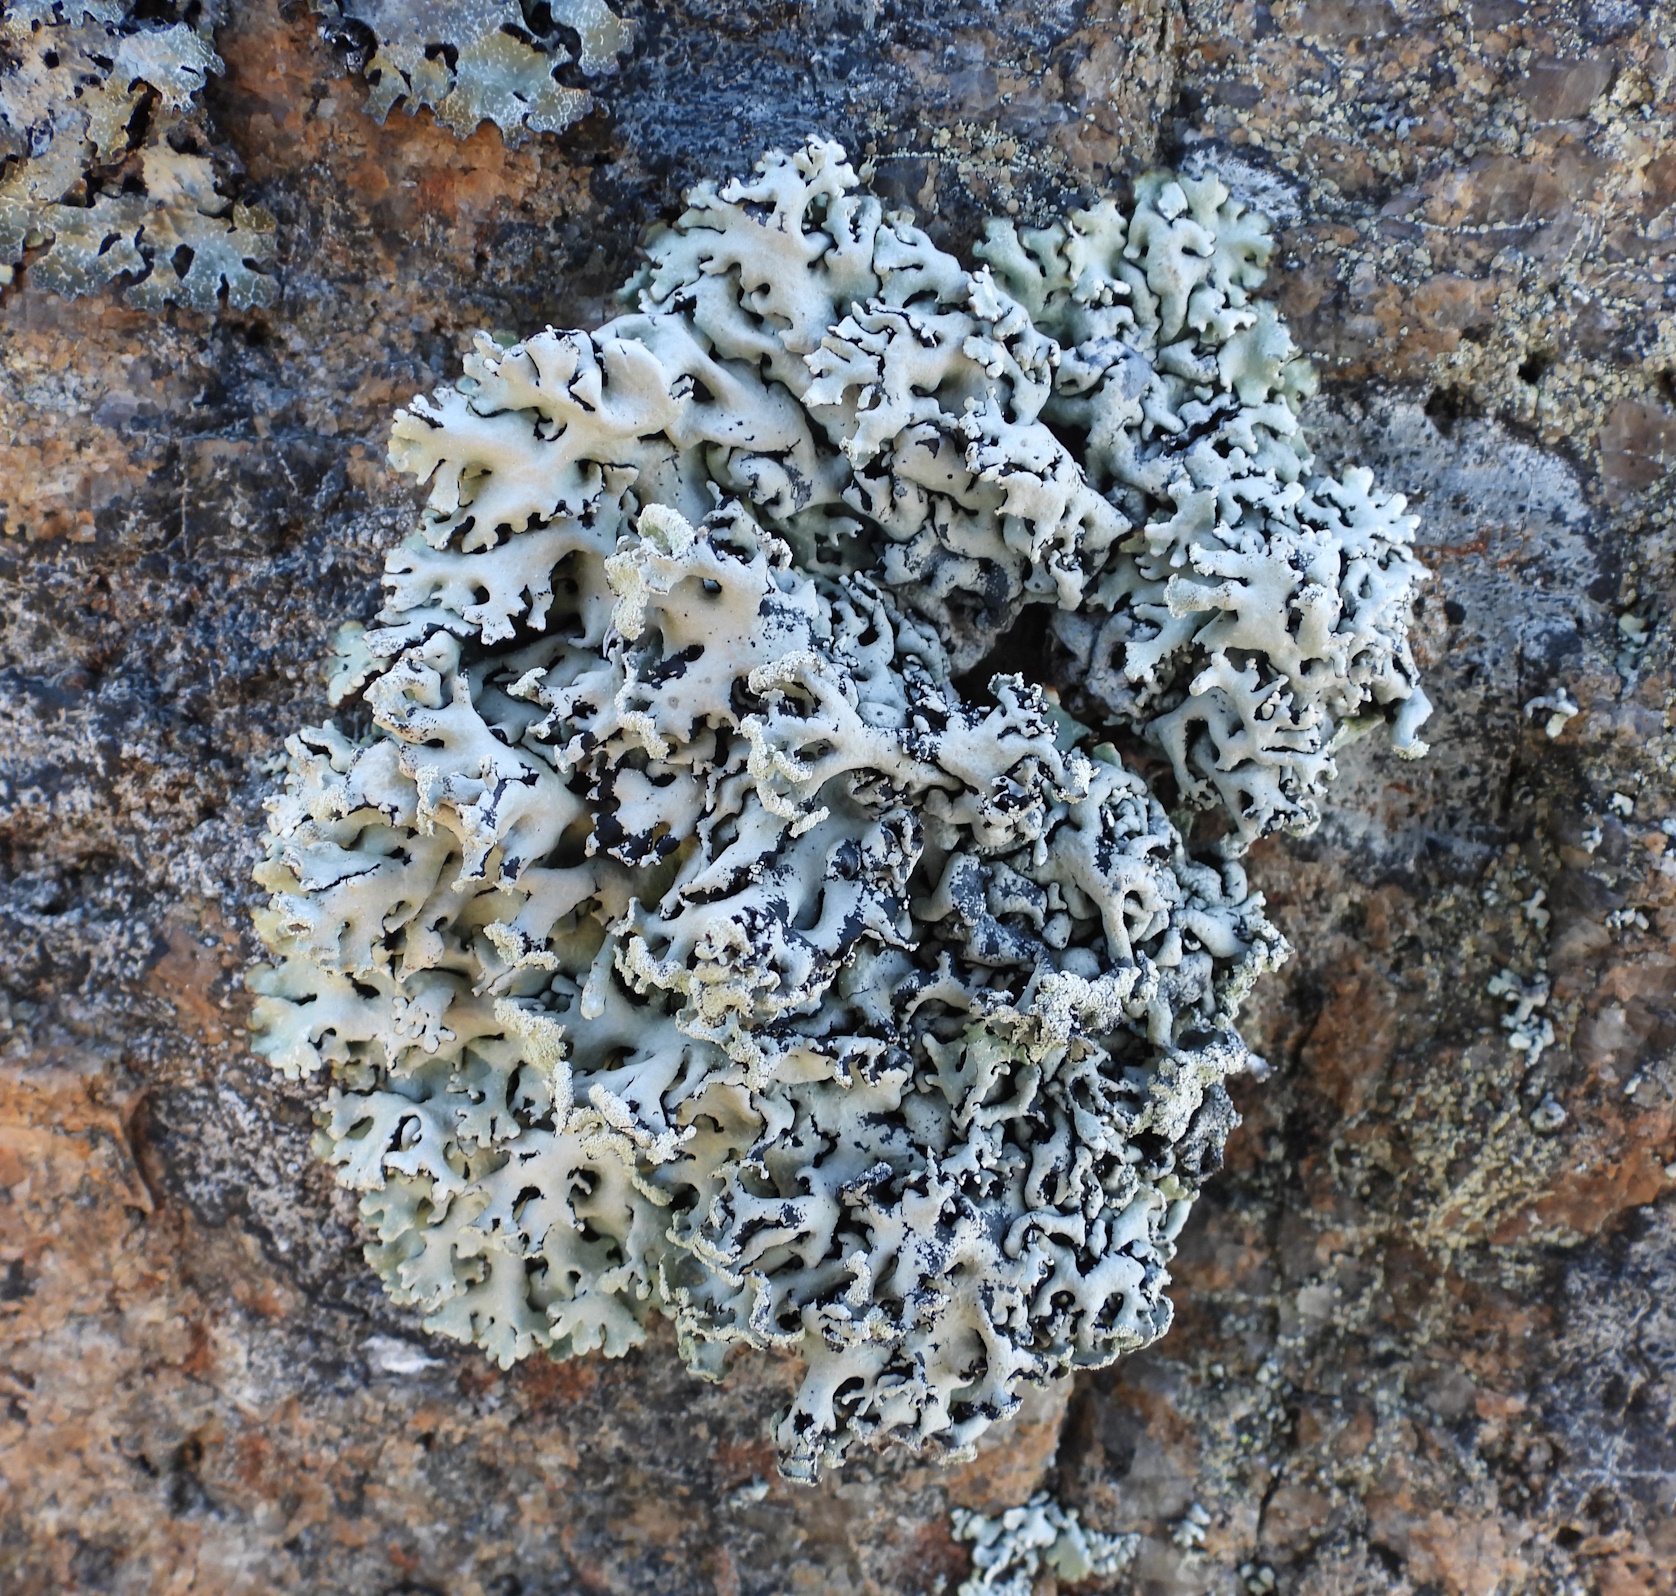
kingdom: Fungi
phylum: Ascomycota
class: Lecanoromycetes
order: Lecanorales
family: Parmeliaceae
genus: Hypogymnia
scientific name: Hypogymnia physodes
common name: Dark crottle
